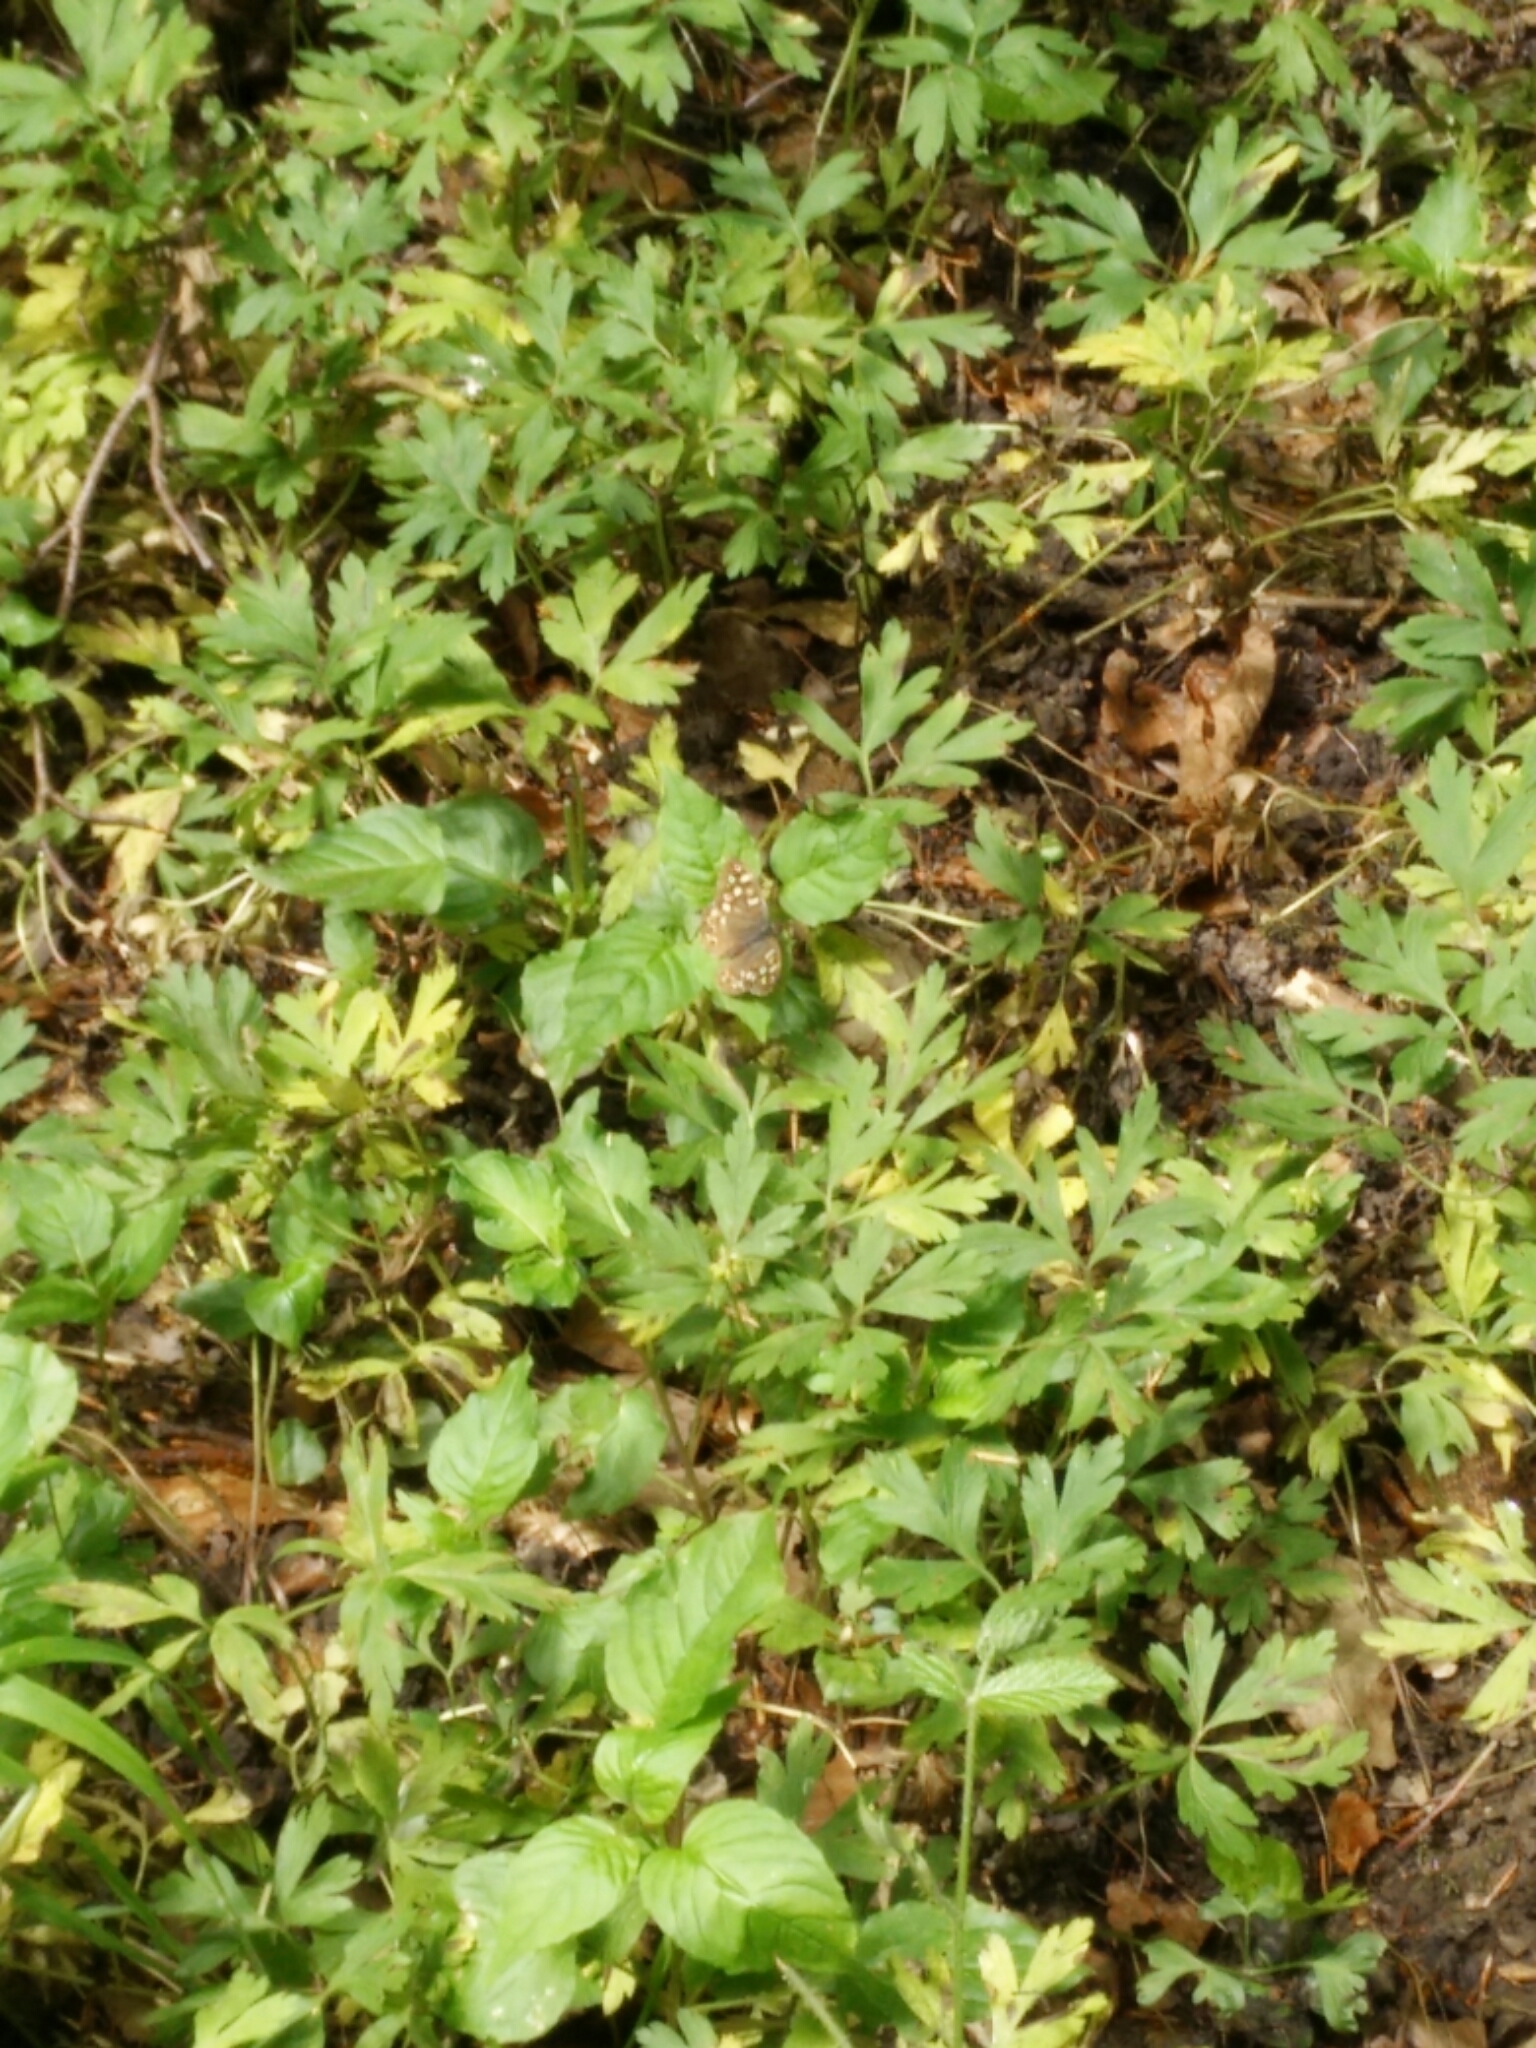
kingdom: Animalia
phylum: Arthropoda
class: Insecta
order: Lepidoptera
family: Nymphalidae
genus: Pararge
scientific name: Pararge aegeria
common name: Speckled wood
